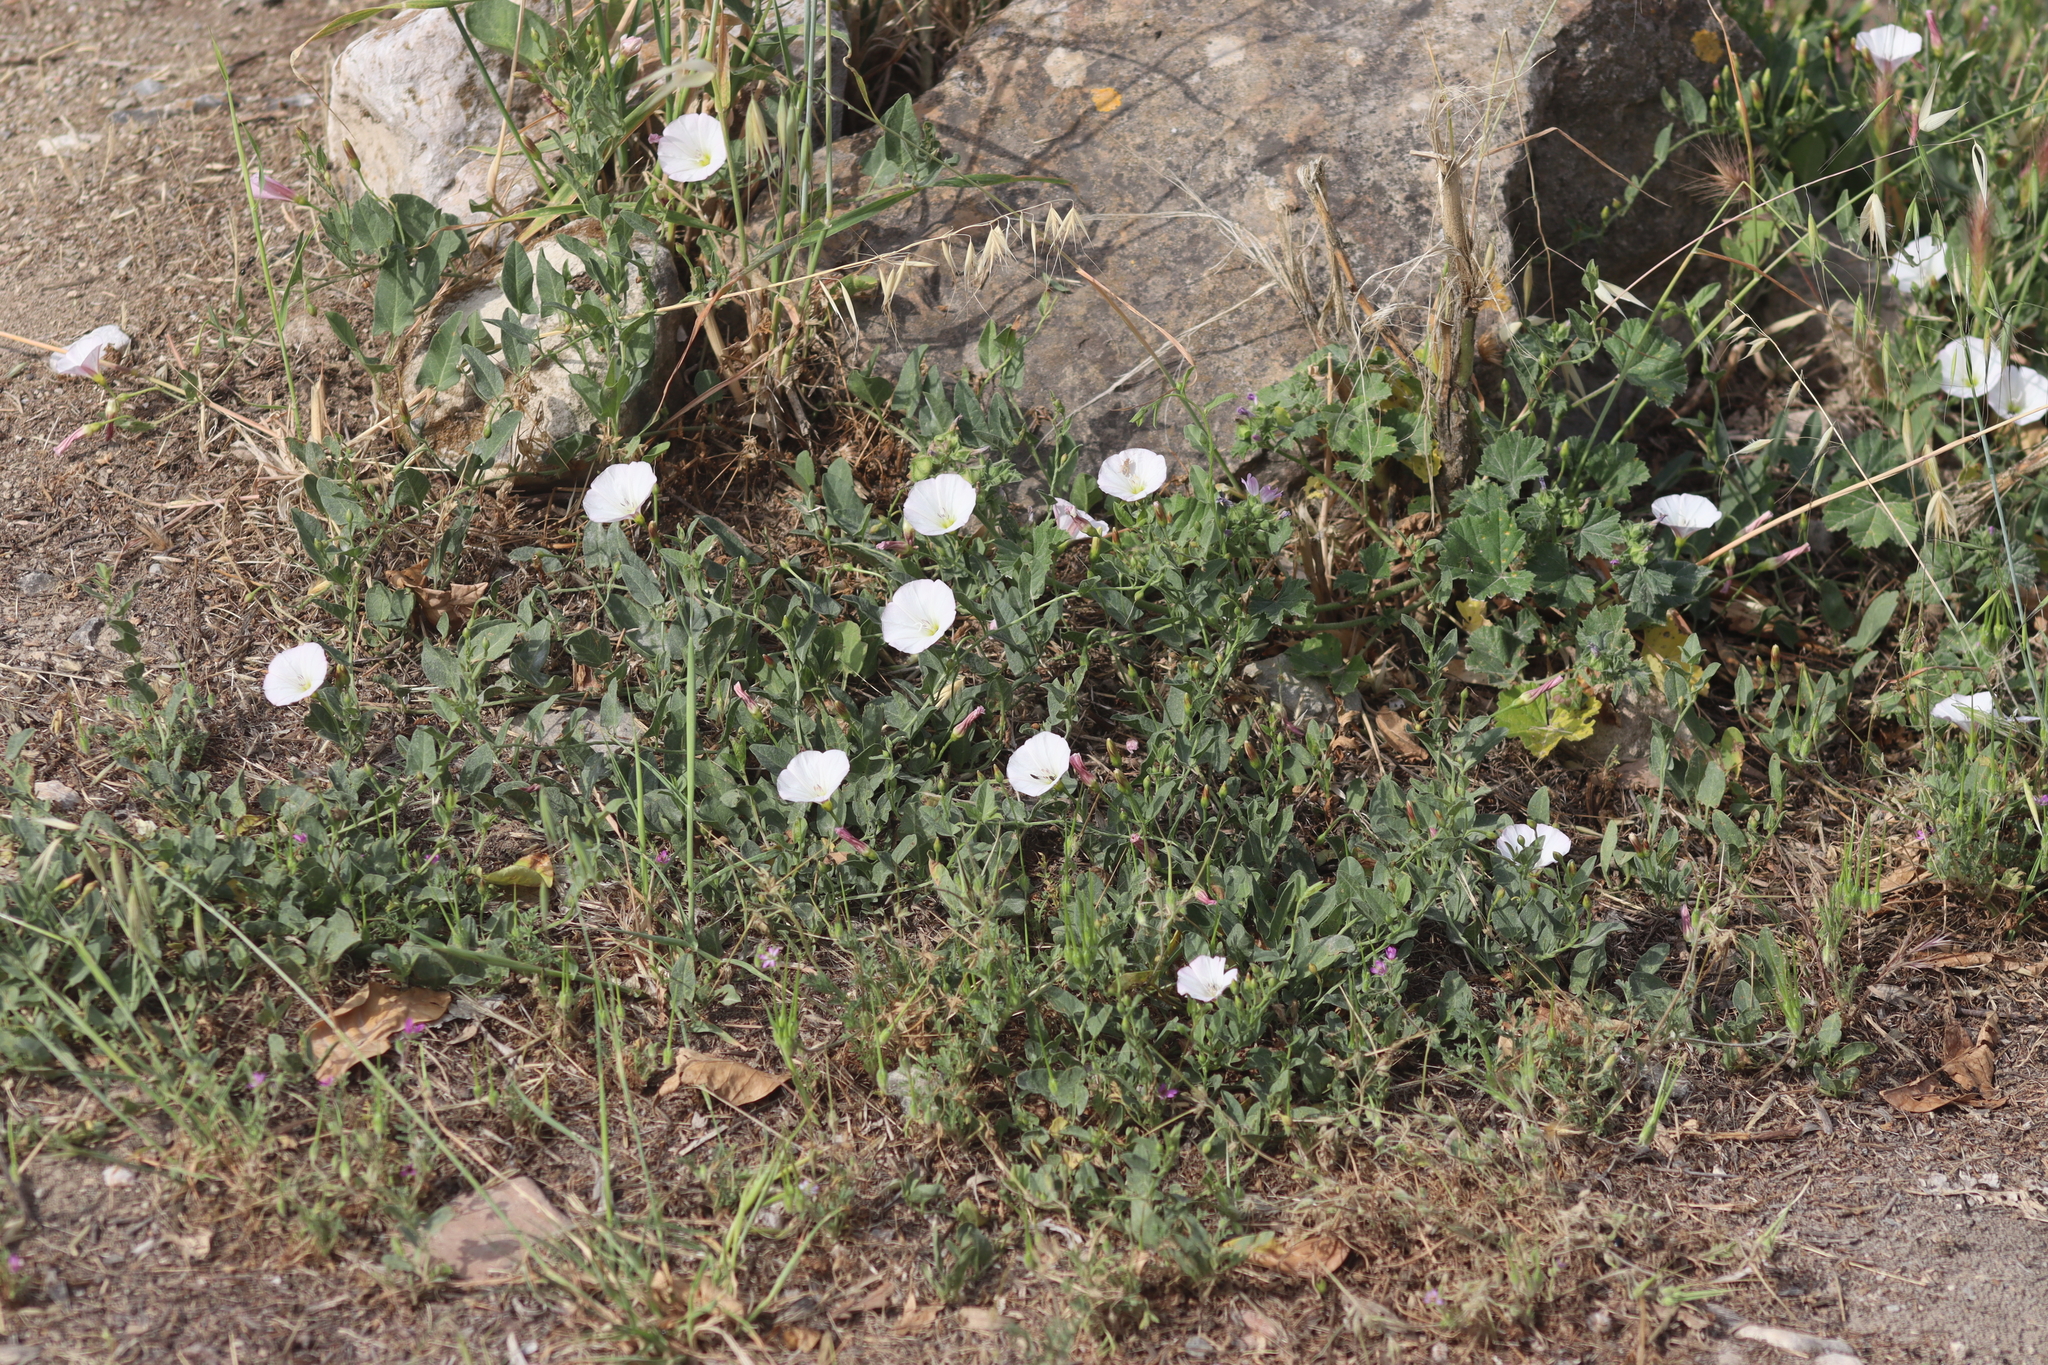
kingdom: Plantae
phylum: Tracheophyta
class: Magnoliopsida
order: Solanales
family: Convolvulaceae
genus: Convolvulus
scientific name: Convolvulus arvensis
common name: Field bindweed
